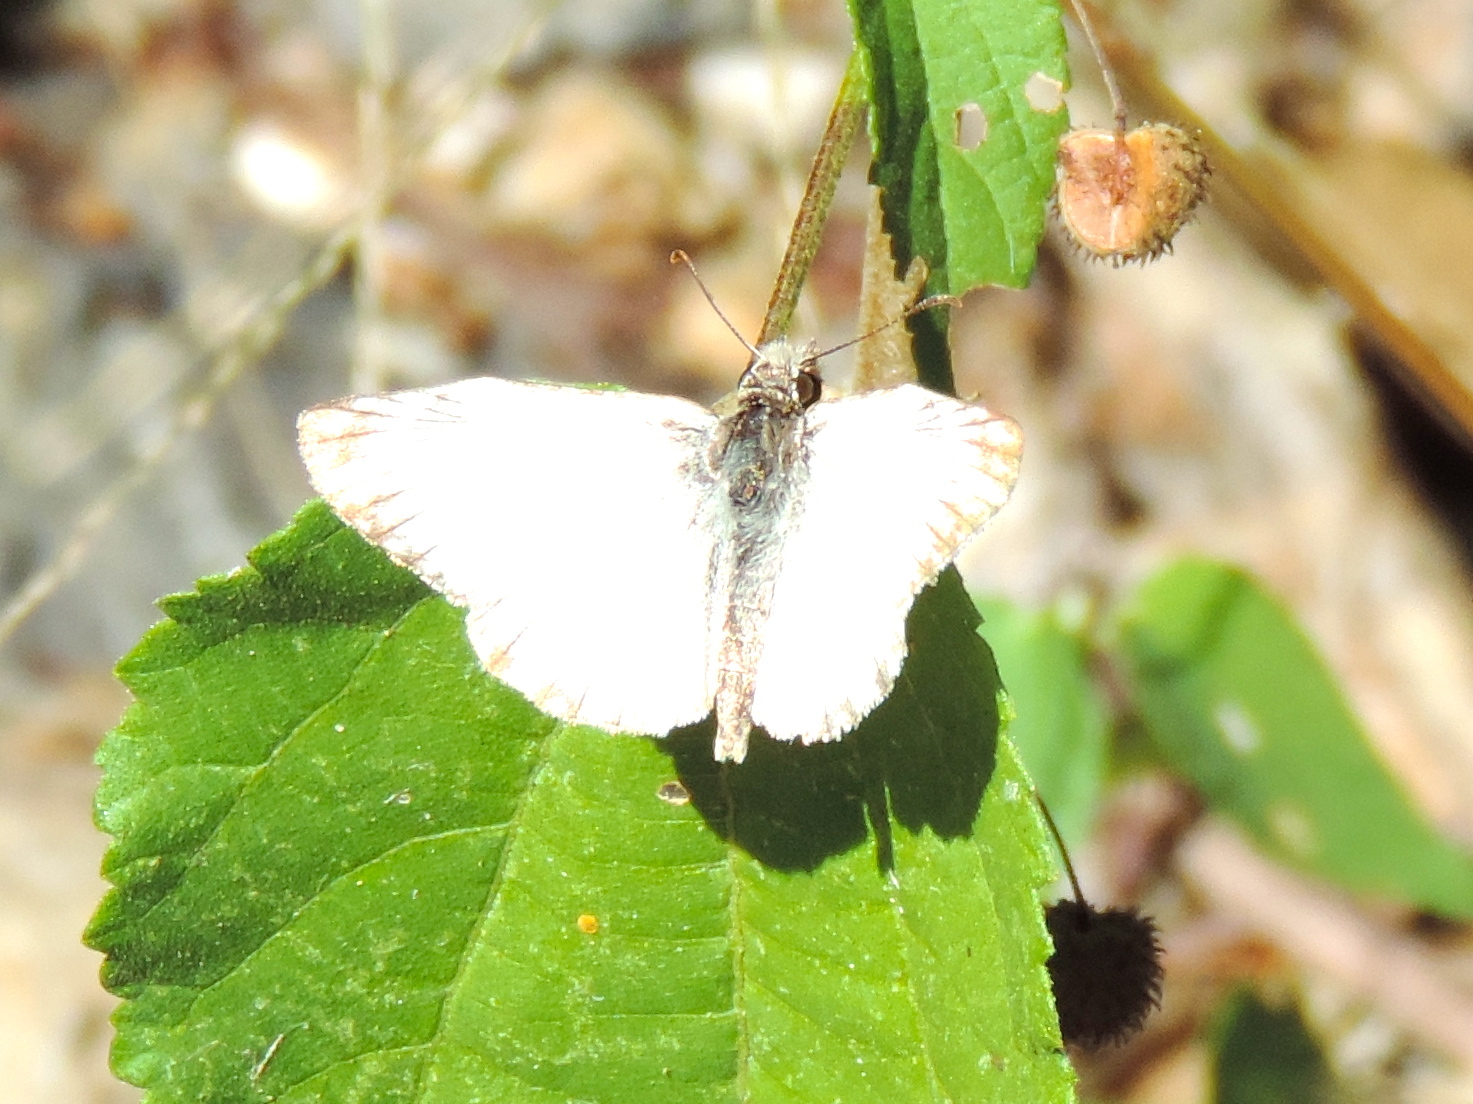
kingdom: Animalia
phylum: Arthropoda
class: Insecta
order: Lepidoptera
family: Hesperiidae
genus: Heliopetes
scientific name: Heliopetes macaira
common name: Turk's-cap white-skipper
